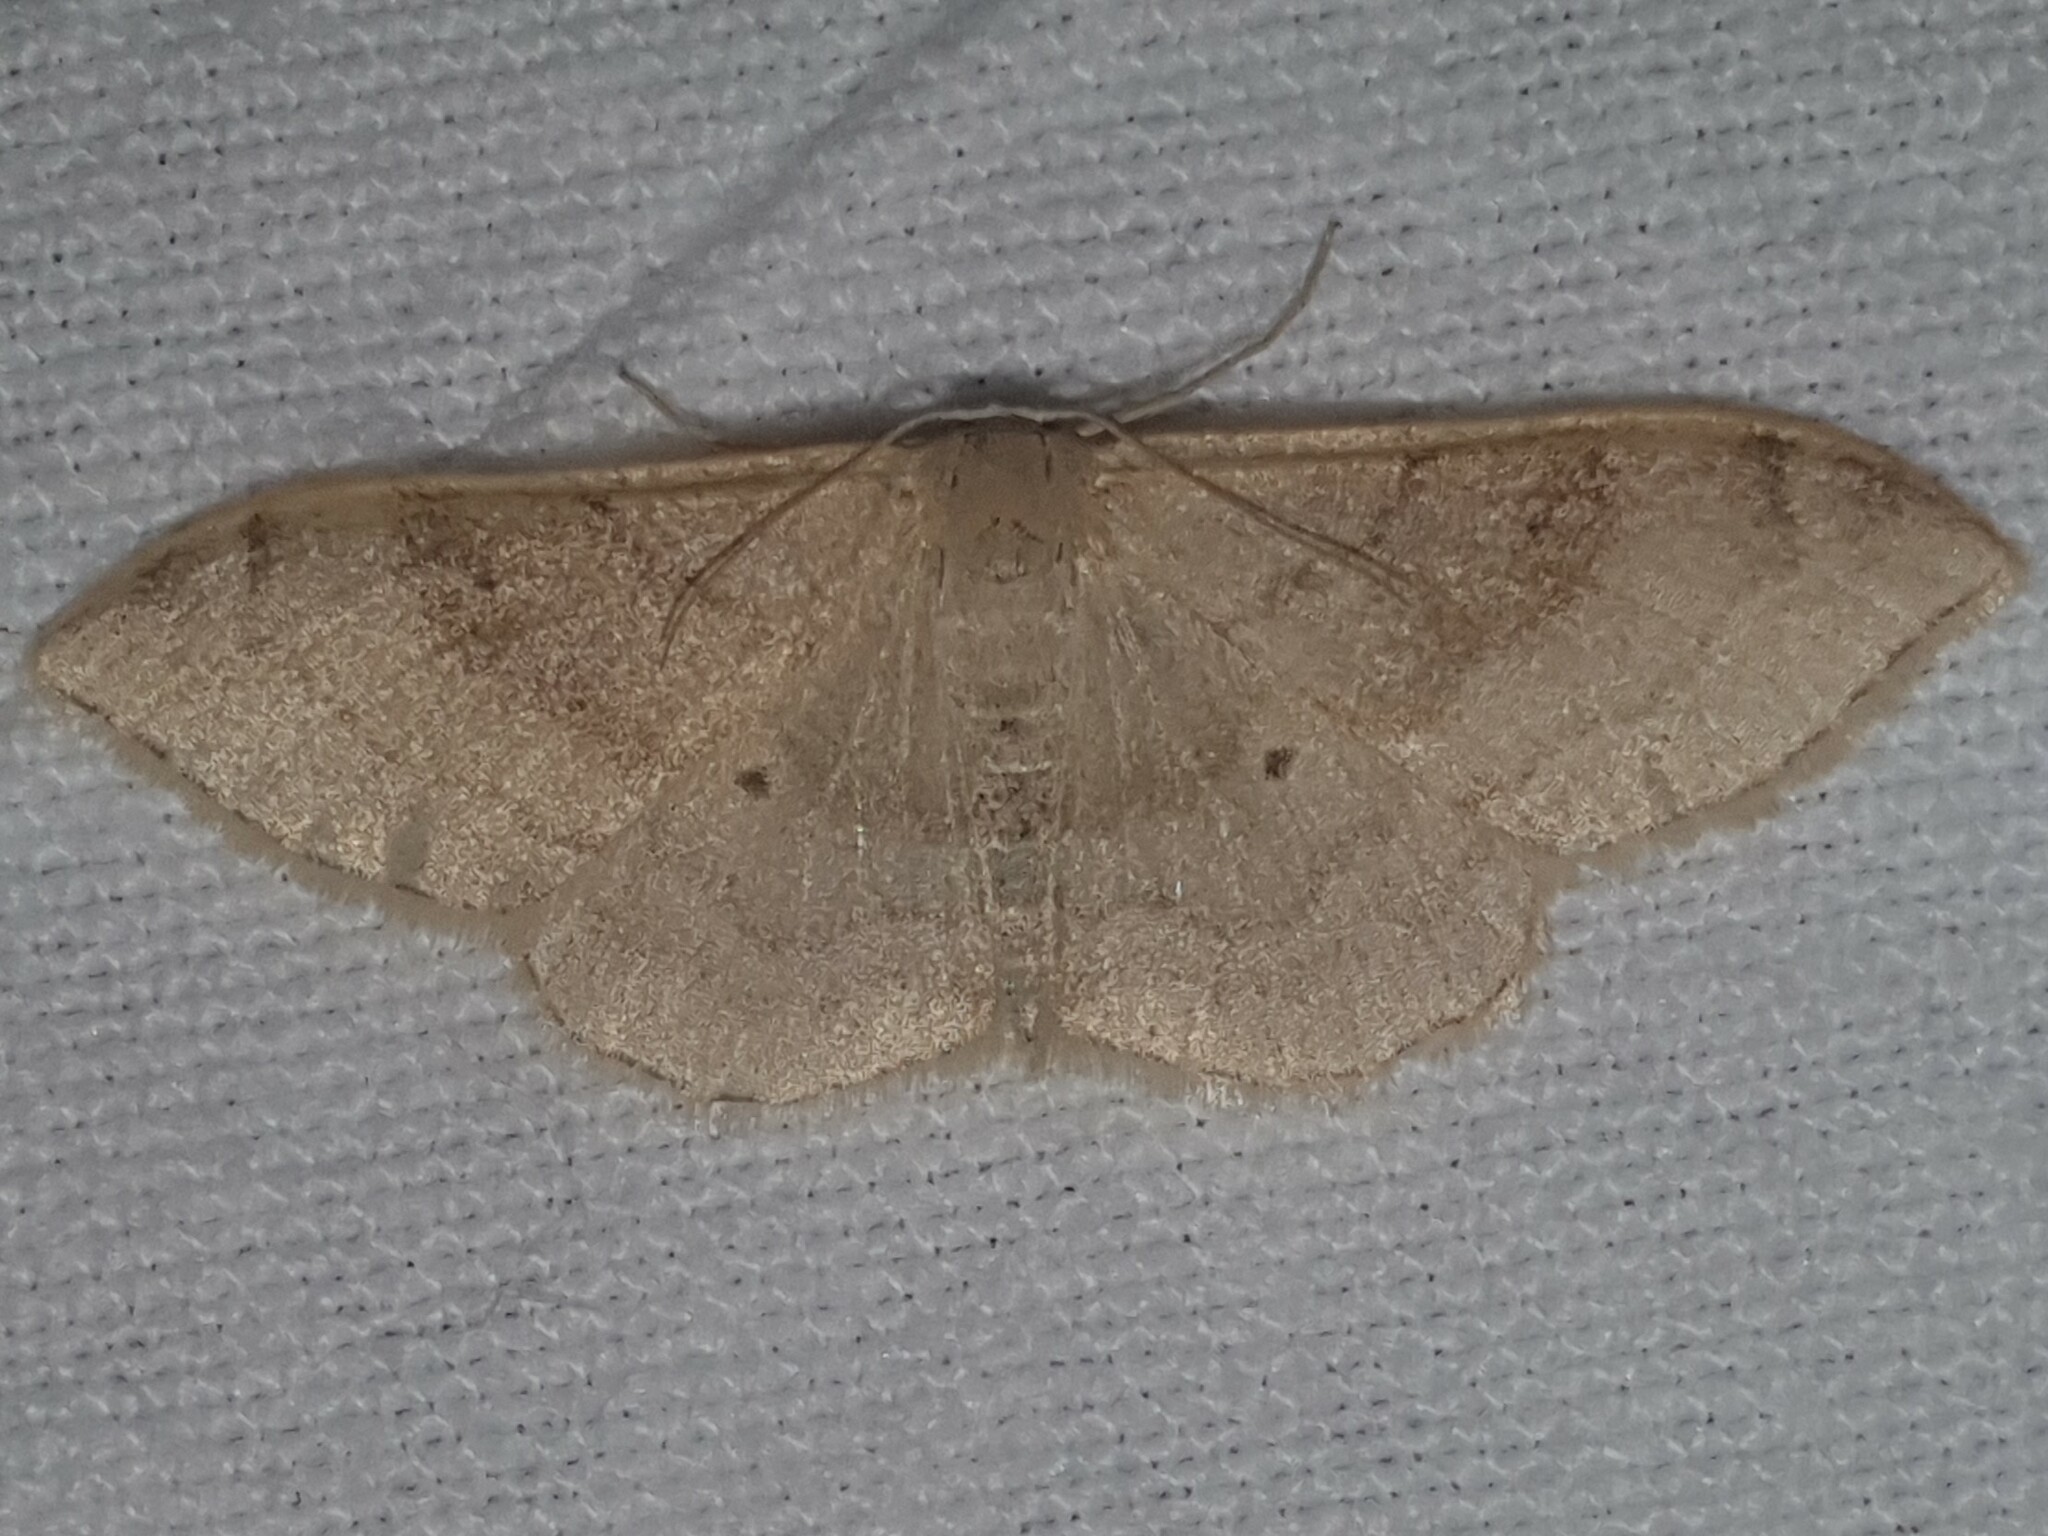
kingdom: Animalia
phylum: Arthropoda
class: Insecta
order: Lepidoptera
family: Geometridae
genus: Idaea
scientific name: Idaea degeneraria
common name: Portland ribbon wave
